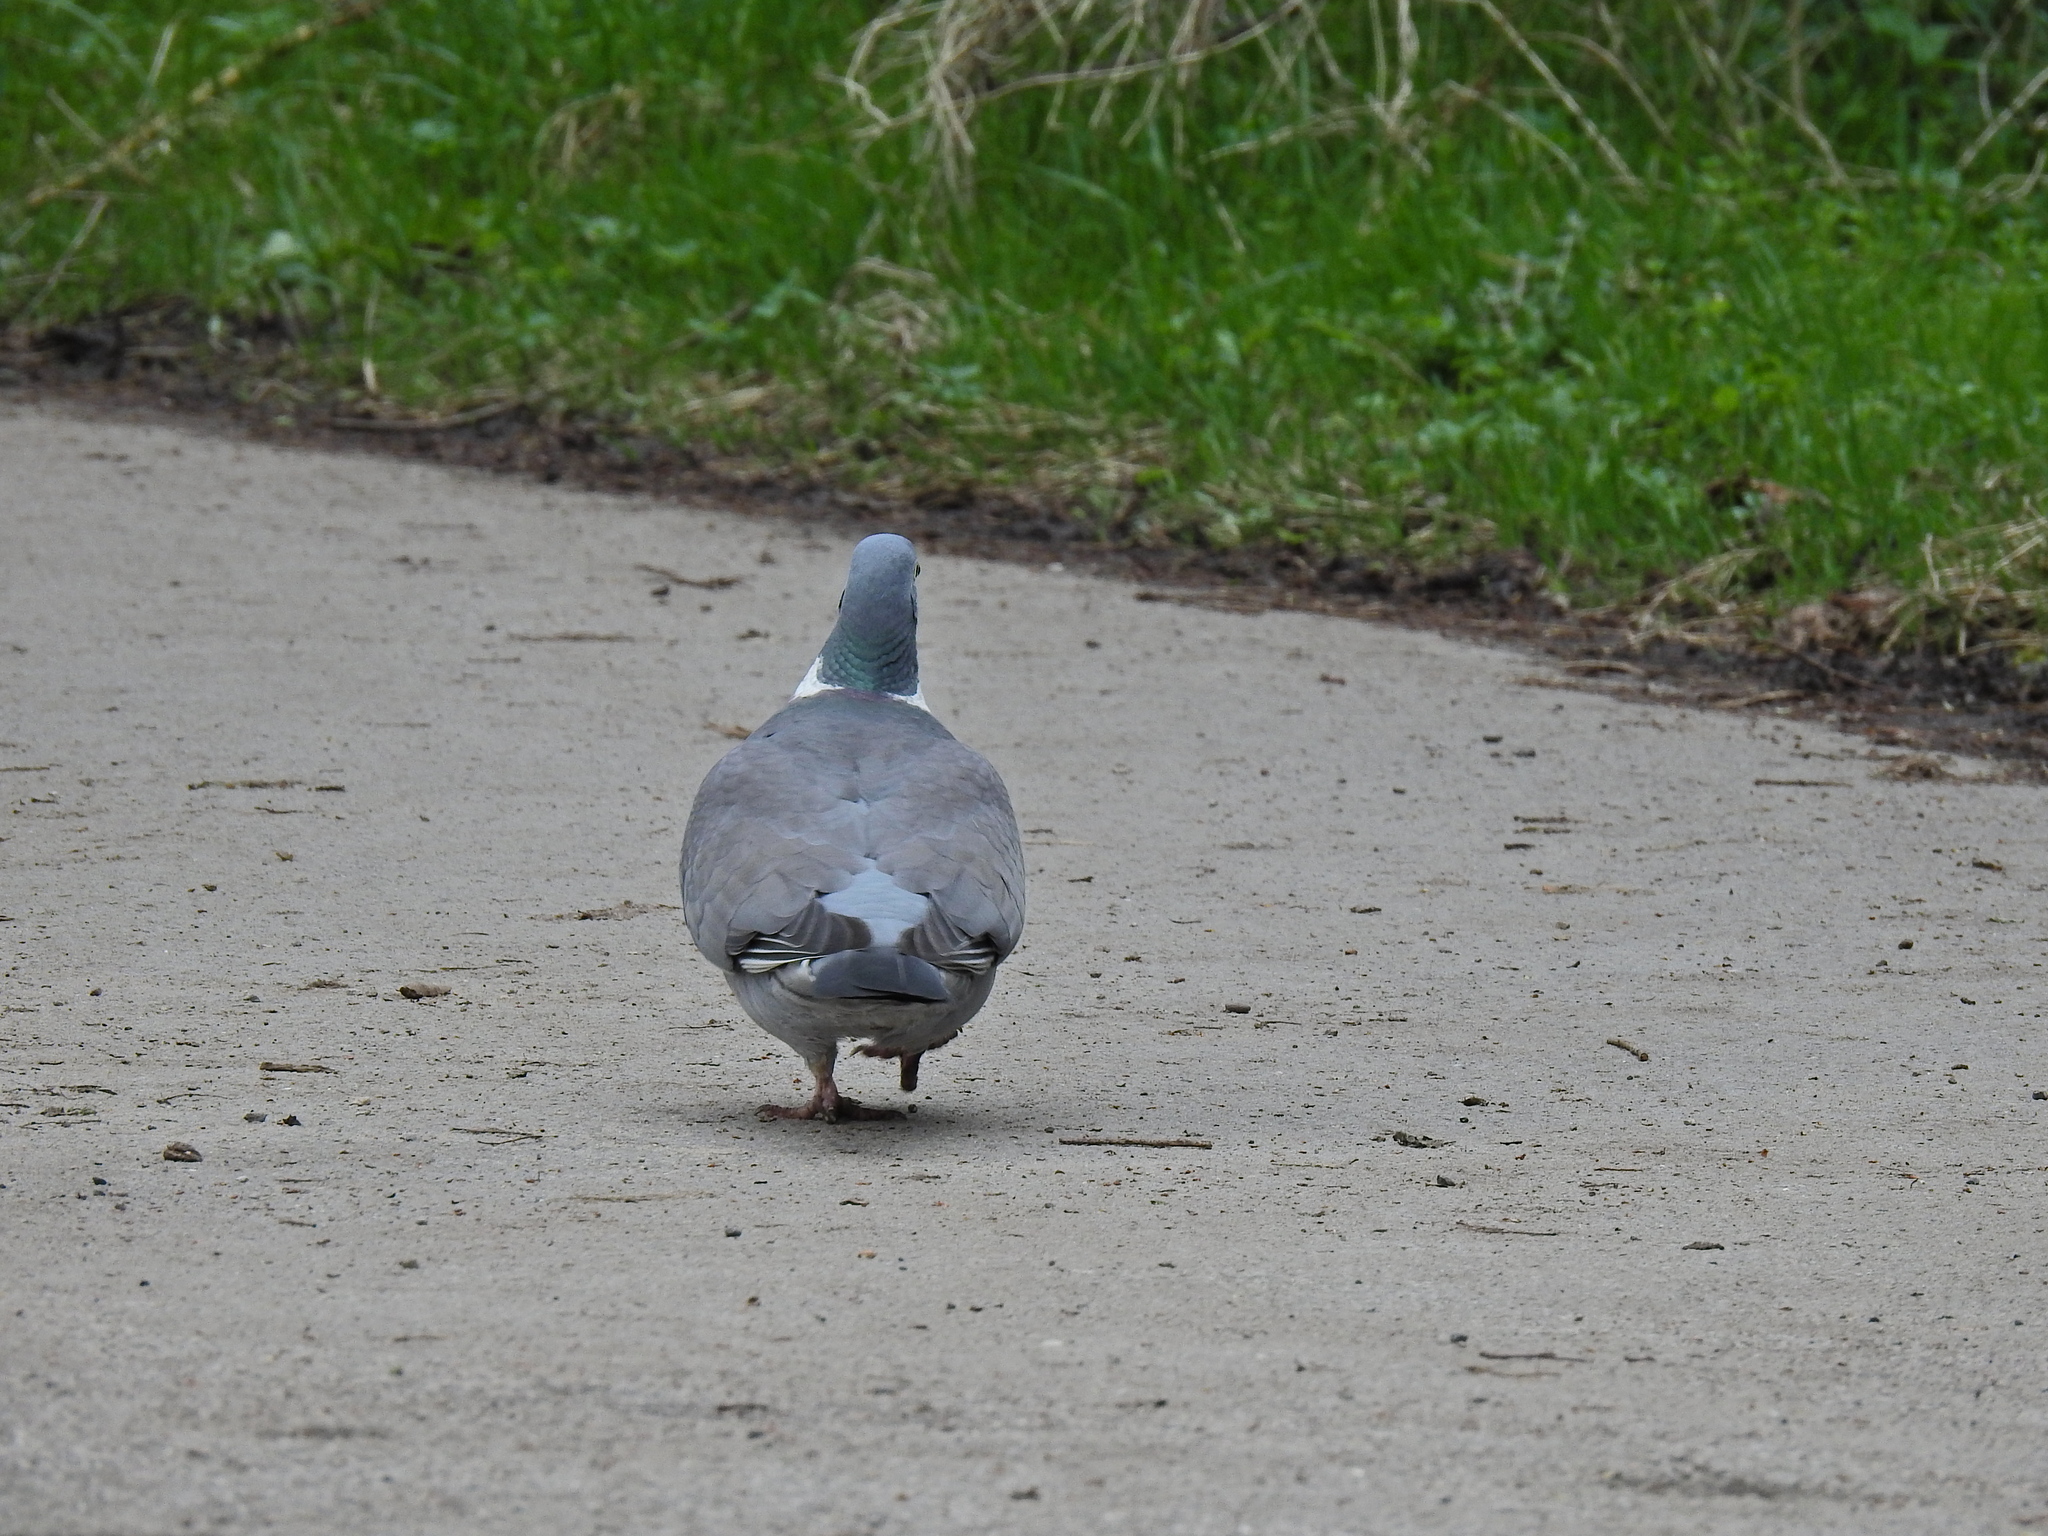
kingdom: Animalia
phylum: Chordata
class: Aves
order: Columbiformes
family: Columbidae
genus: Columba
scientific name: Columba palumbus
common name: Common wood pigeon
